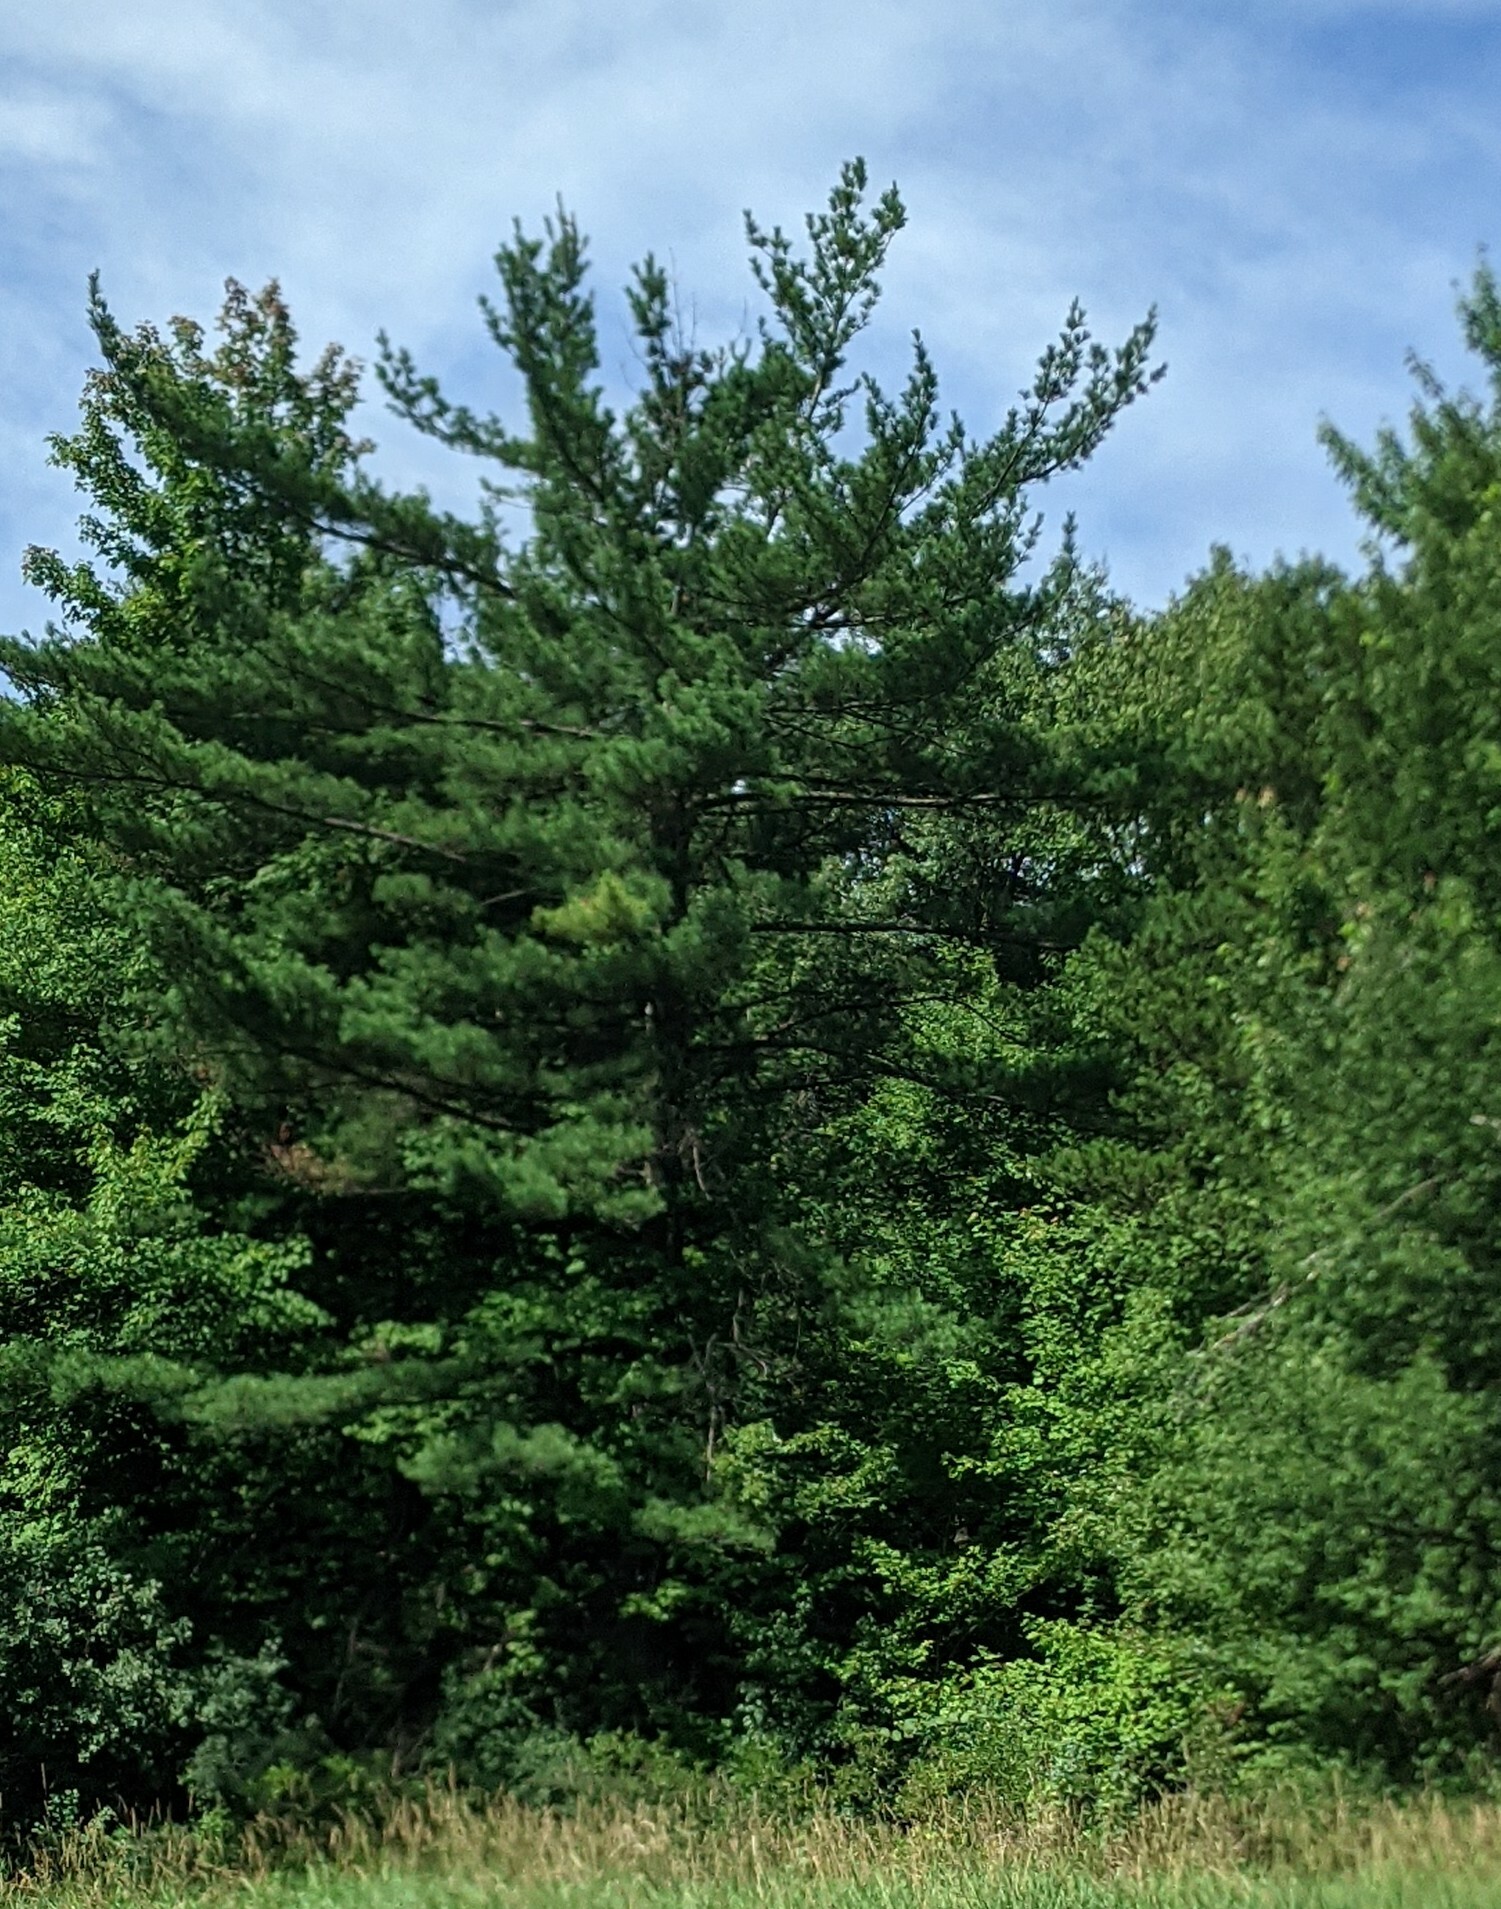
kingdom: Plantae
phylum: Tracheophyta
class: Pinopsida
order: Pinales
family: Pinaceae
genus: Pinus
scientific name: Pinus strobus
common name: Weymouth pine
